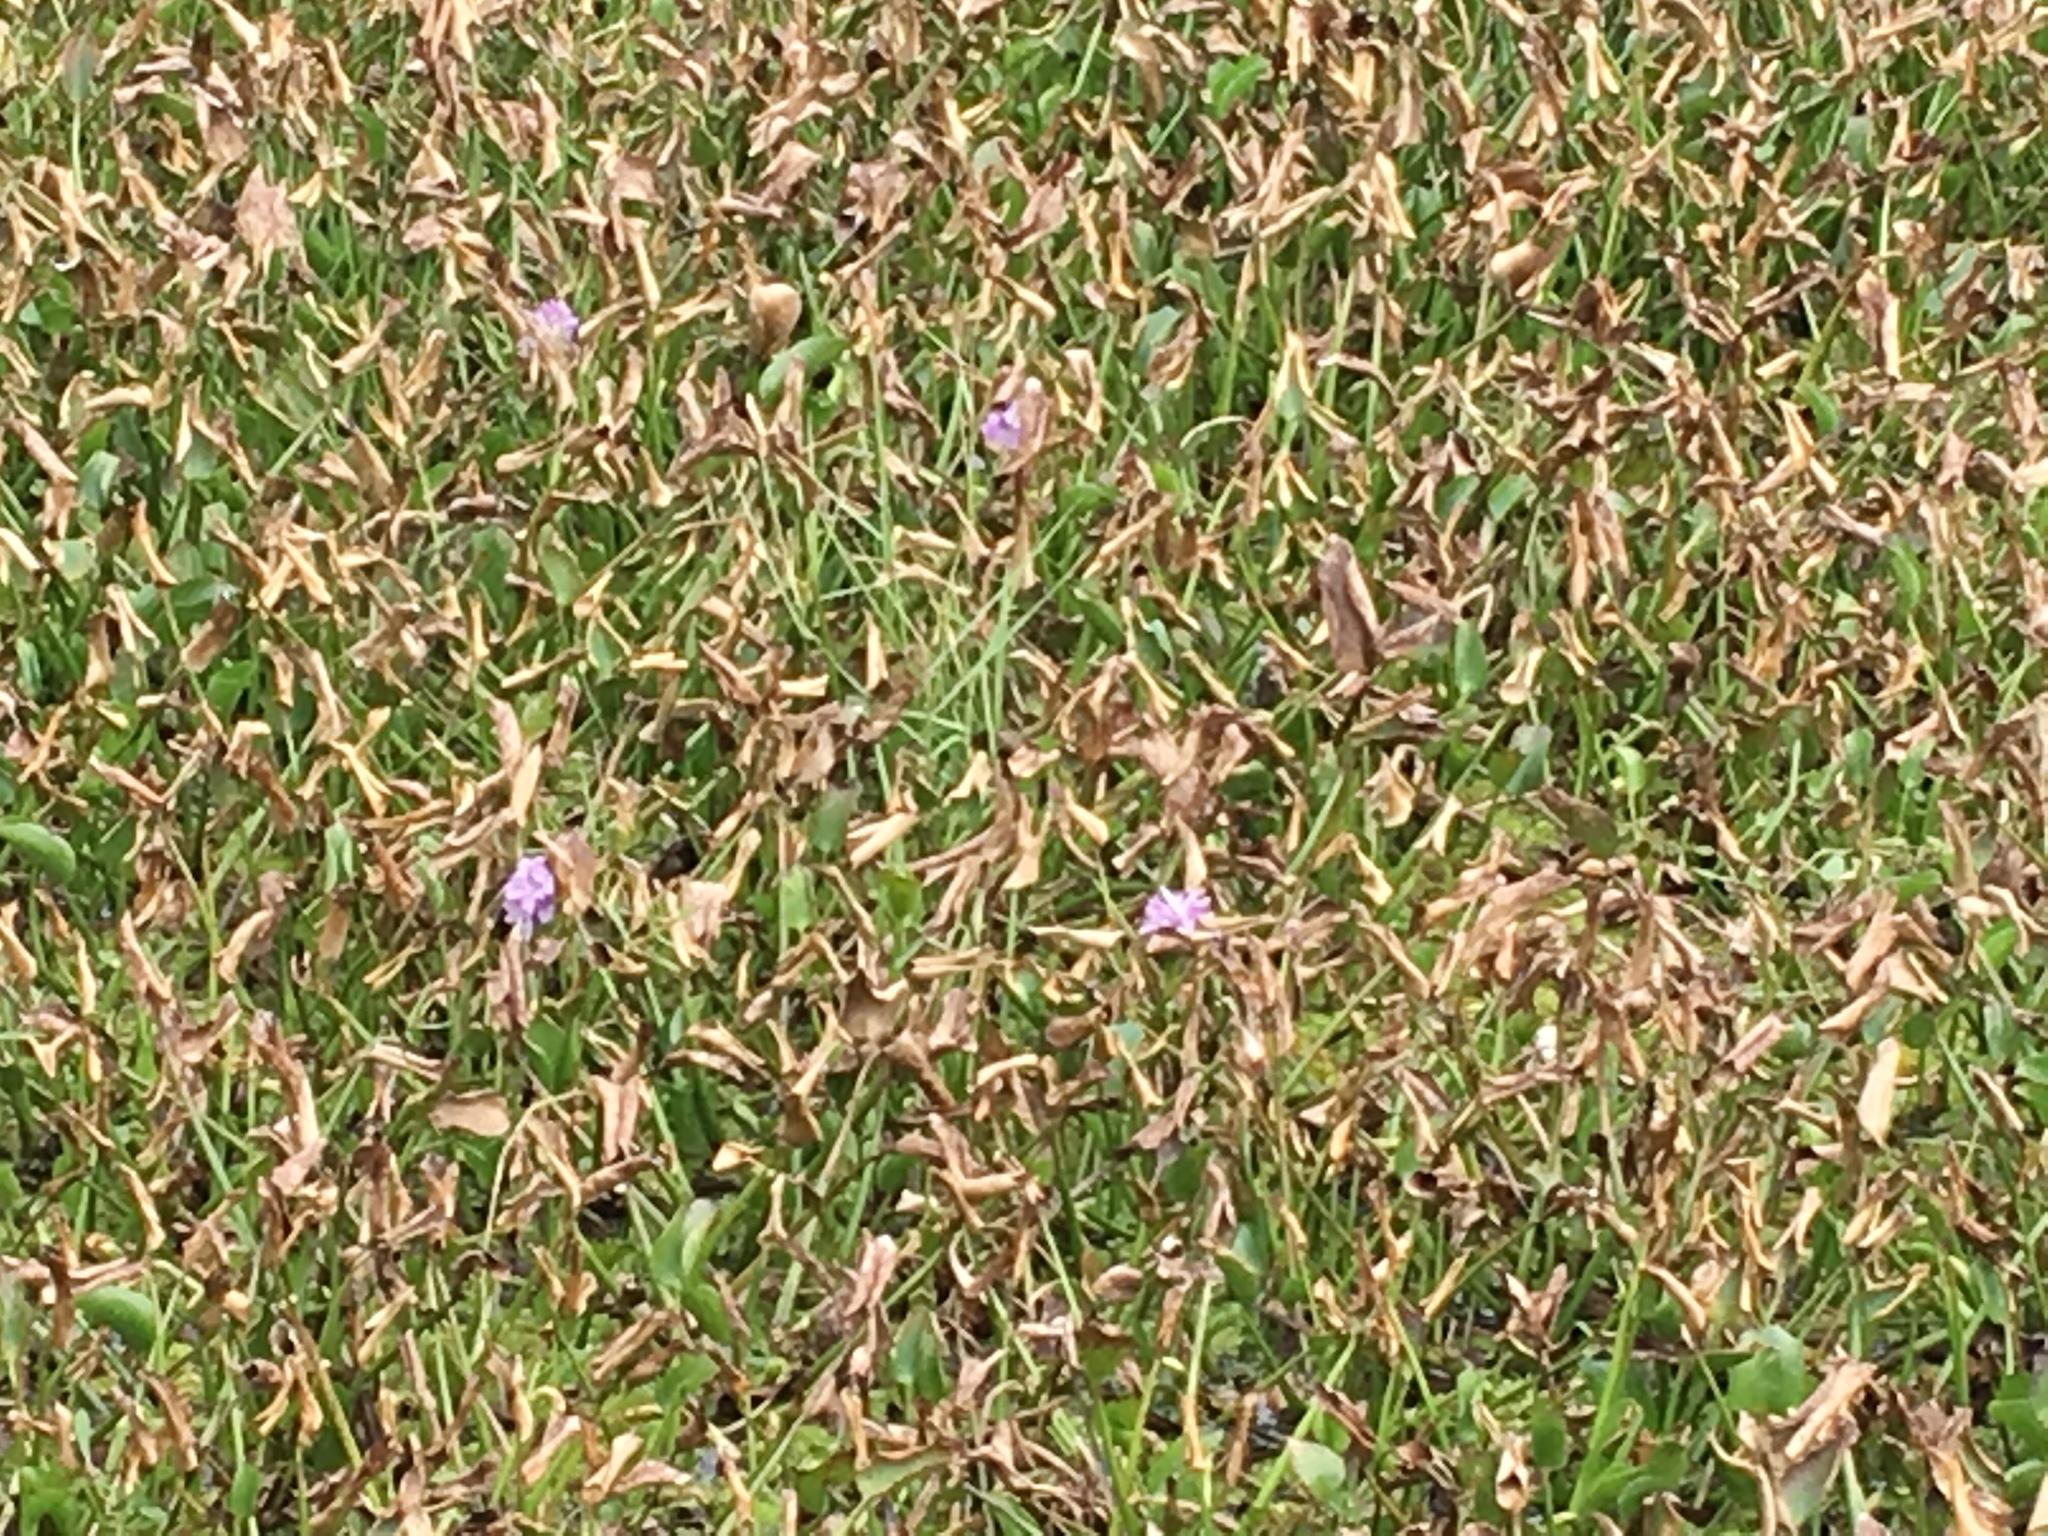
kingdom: Plantae
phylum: Tracheophyta
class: Liliopsida
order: Commelinales
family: Pontederiaceae
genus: Pontederia
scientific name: Pontederia crassipes
